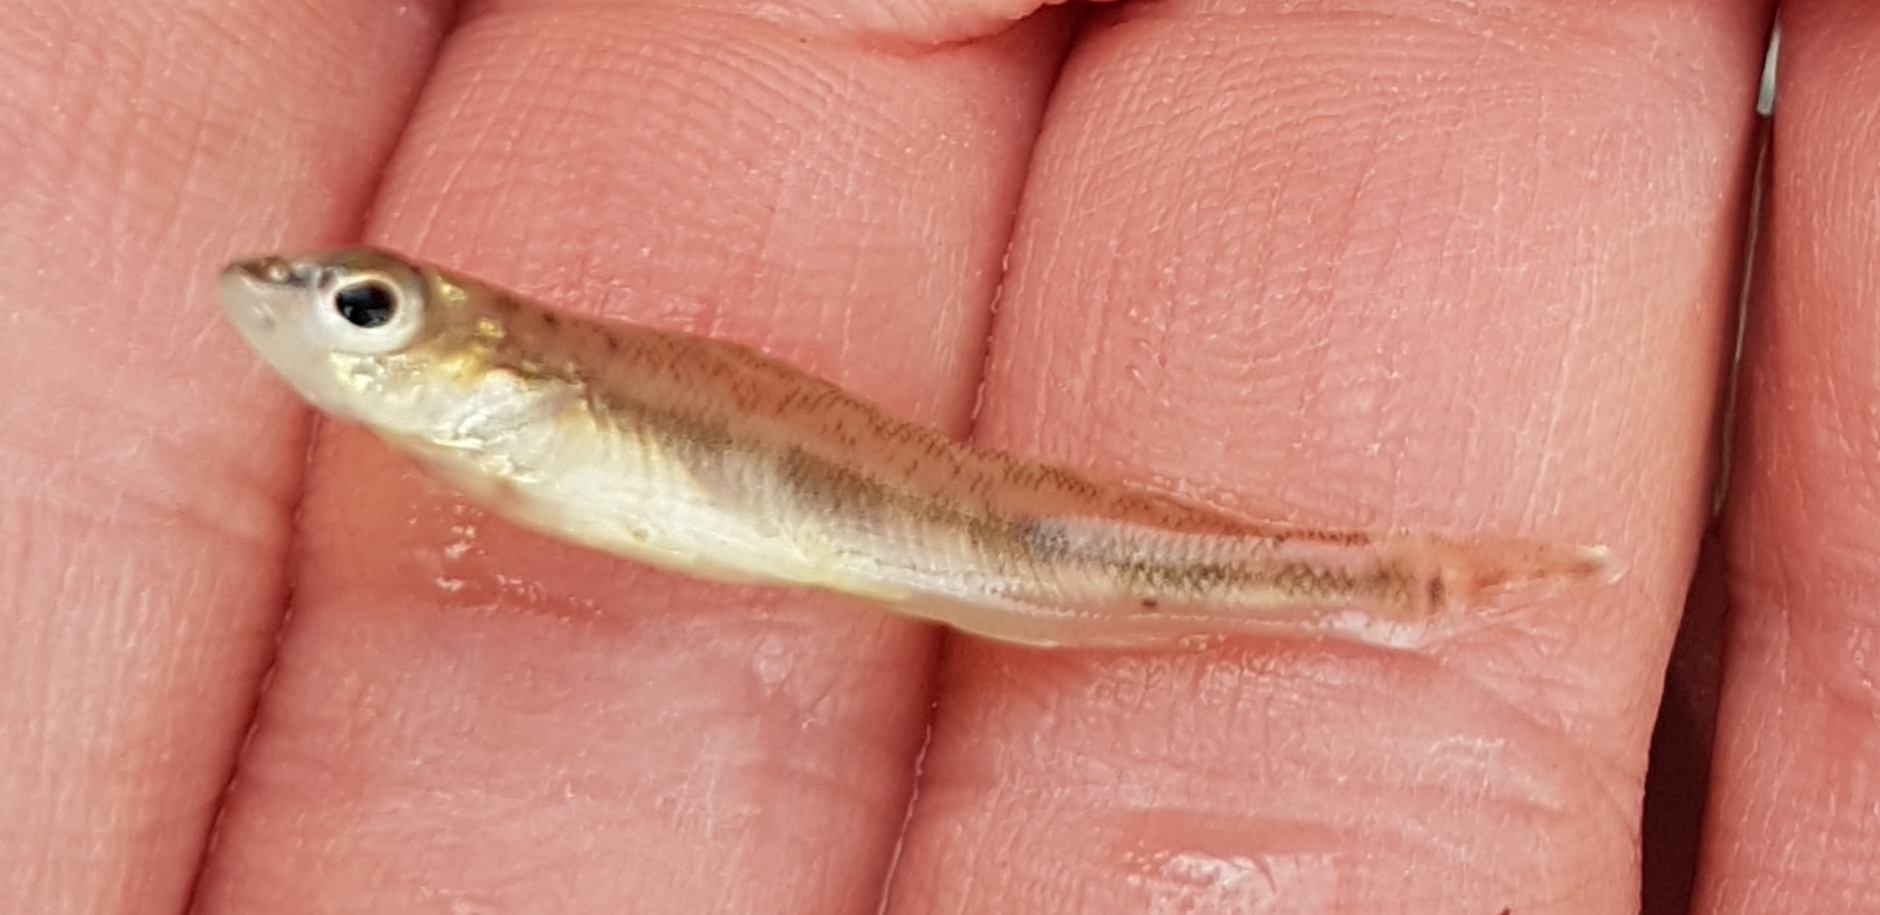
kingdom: Animalia
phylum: Chordata
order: Perciformes
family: Percidae
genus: Percina
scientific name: Percina maculata
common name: Blackside darter
